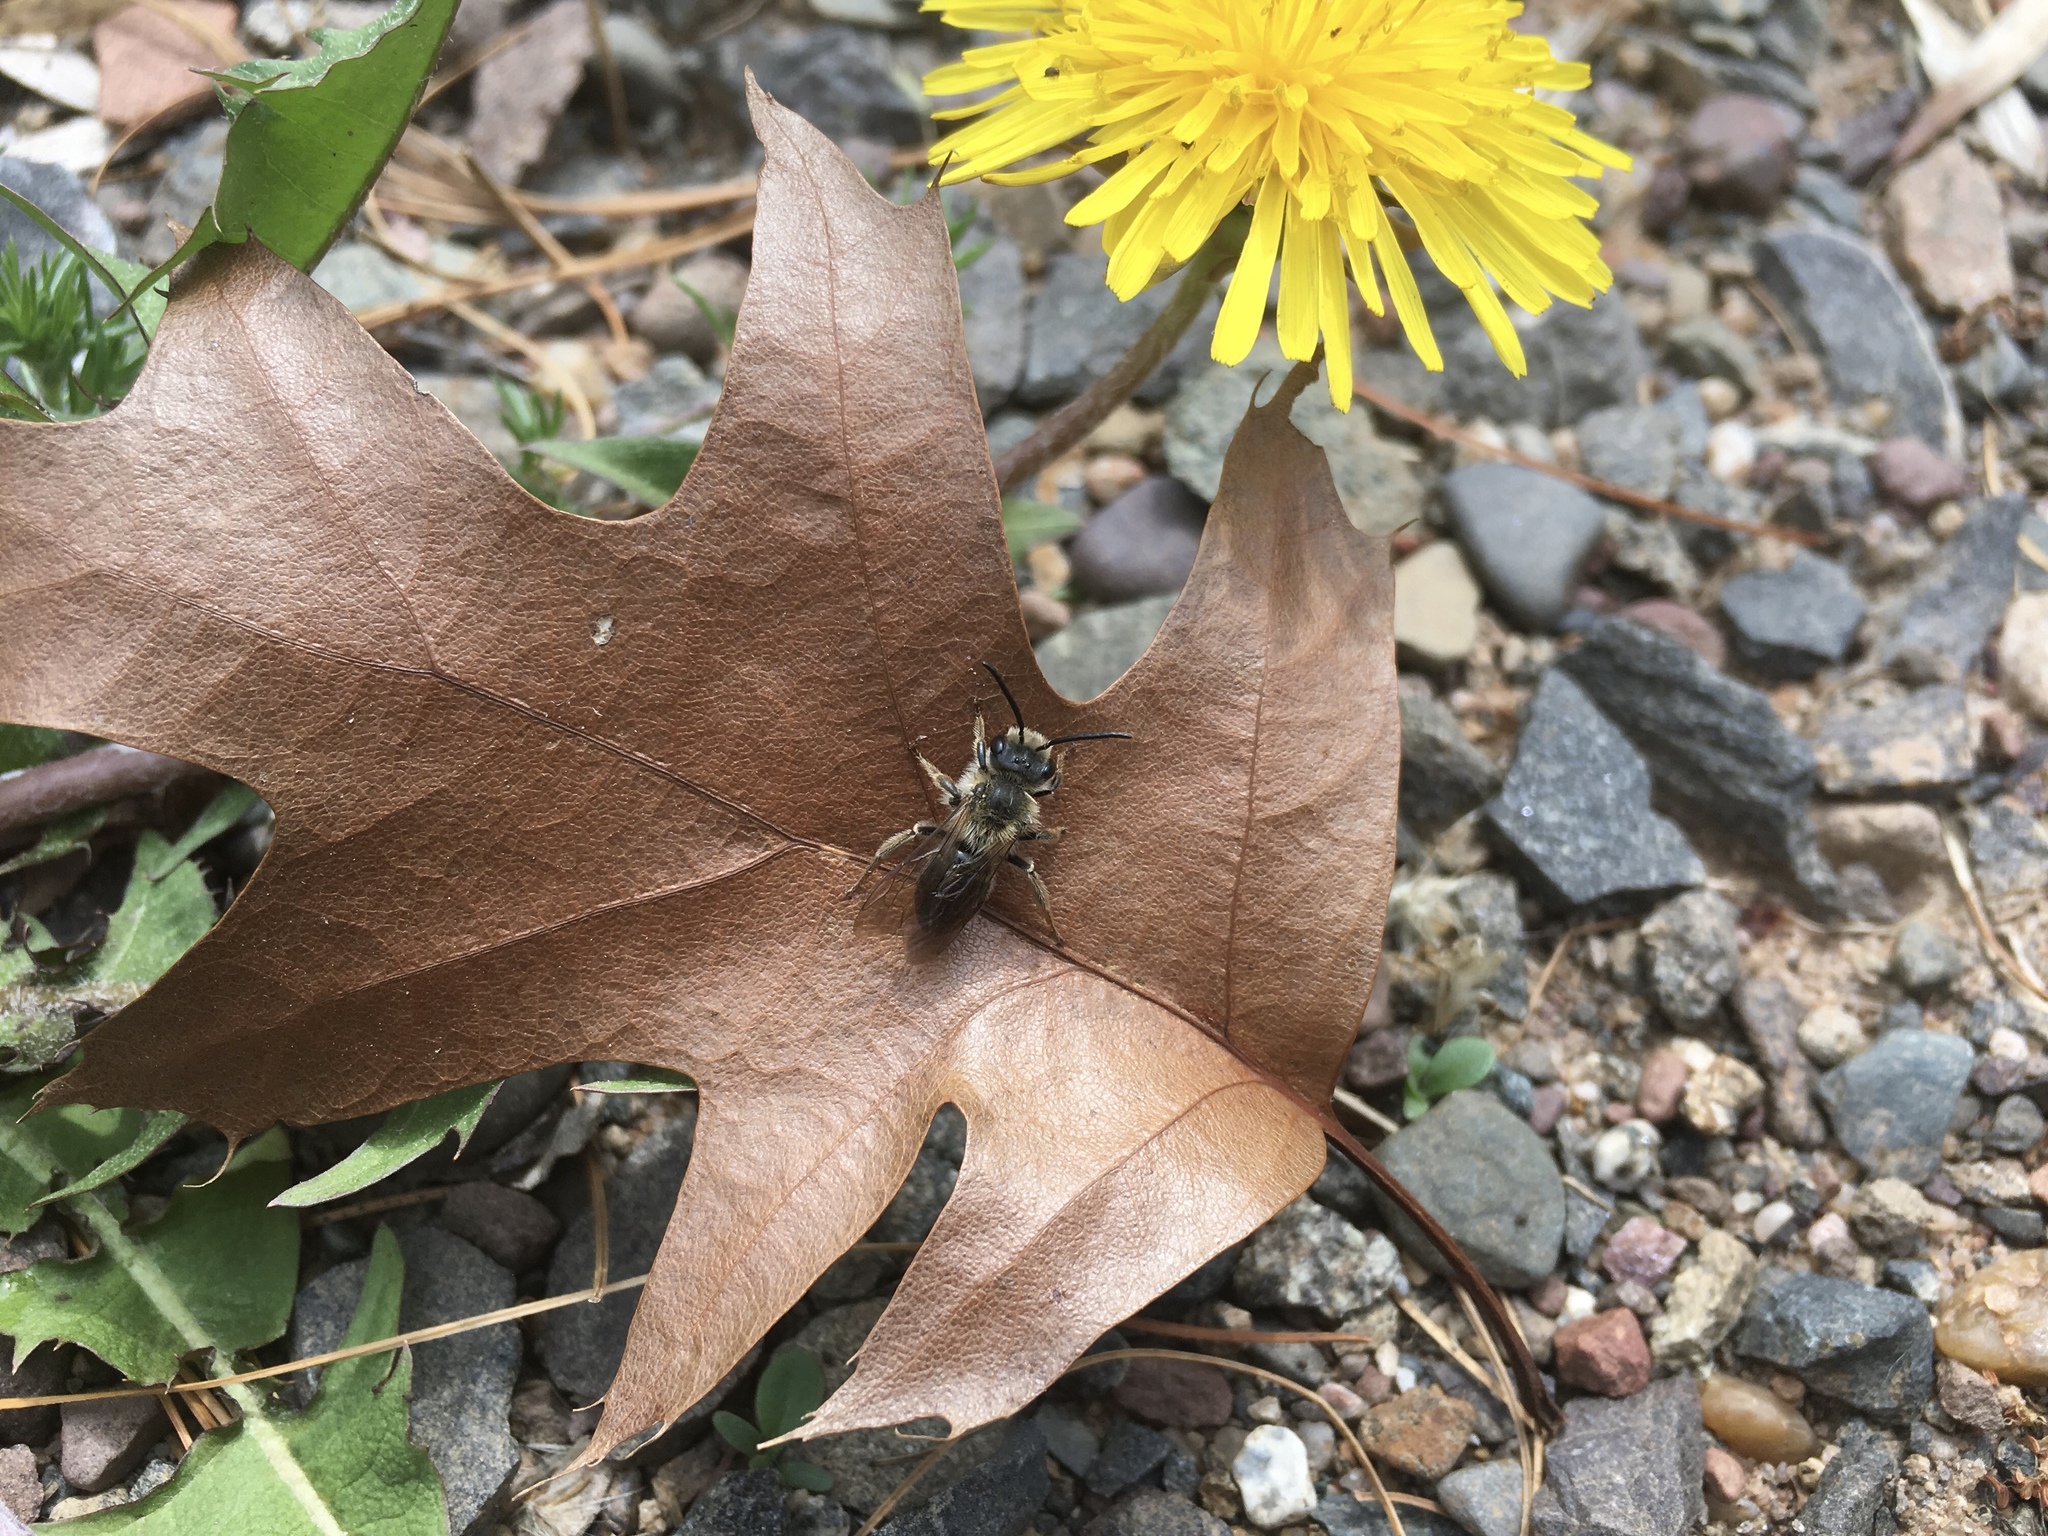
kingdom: Animalia
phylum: Arthropoda
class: Insecta
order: Hymenoptera
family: Apidae
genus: Apis
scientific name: Apis mellifera
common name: Honey bee
